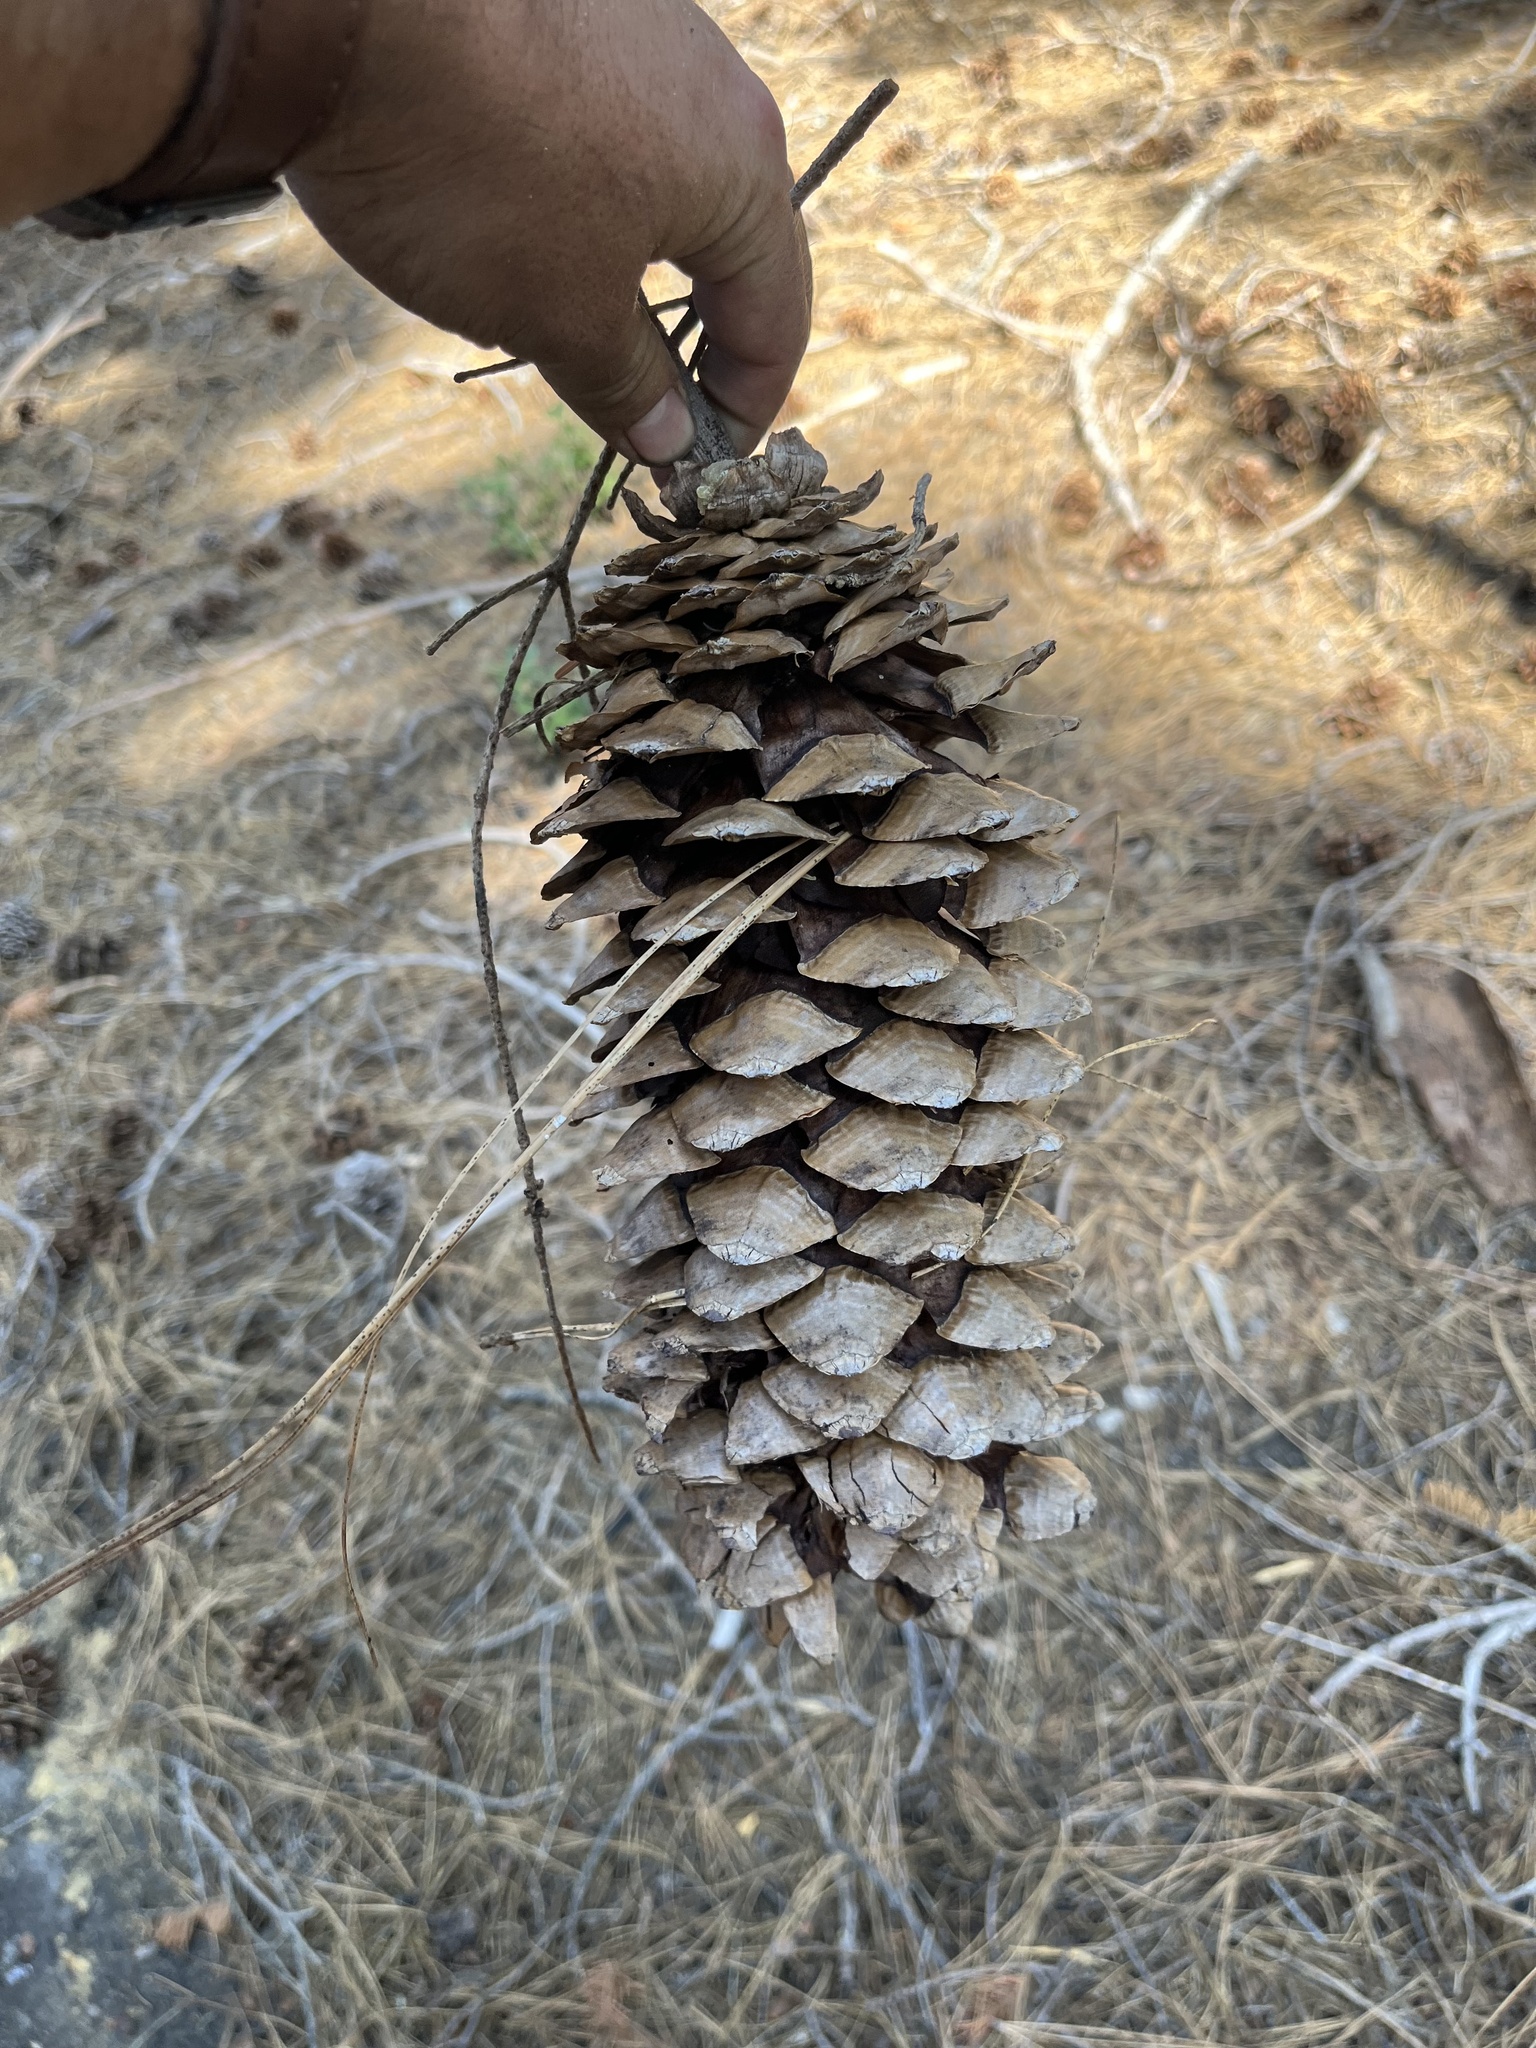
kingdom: Plantae
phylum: Tracheophyta
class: Pinopsida
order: Pinales
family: Pinaceae
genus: Pinus
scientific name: Pinus lambertiana
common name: Sugar pine
